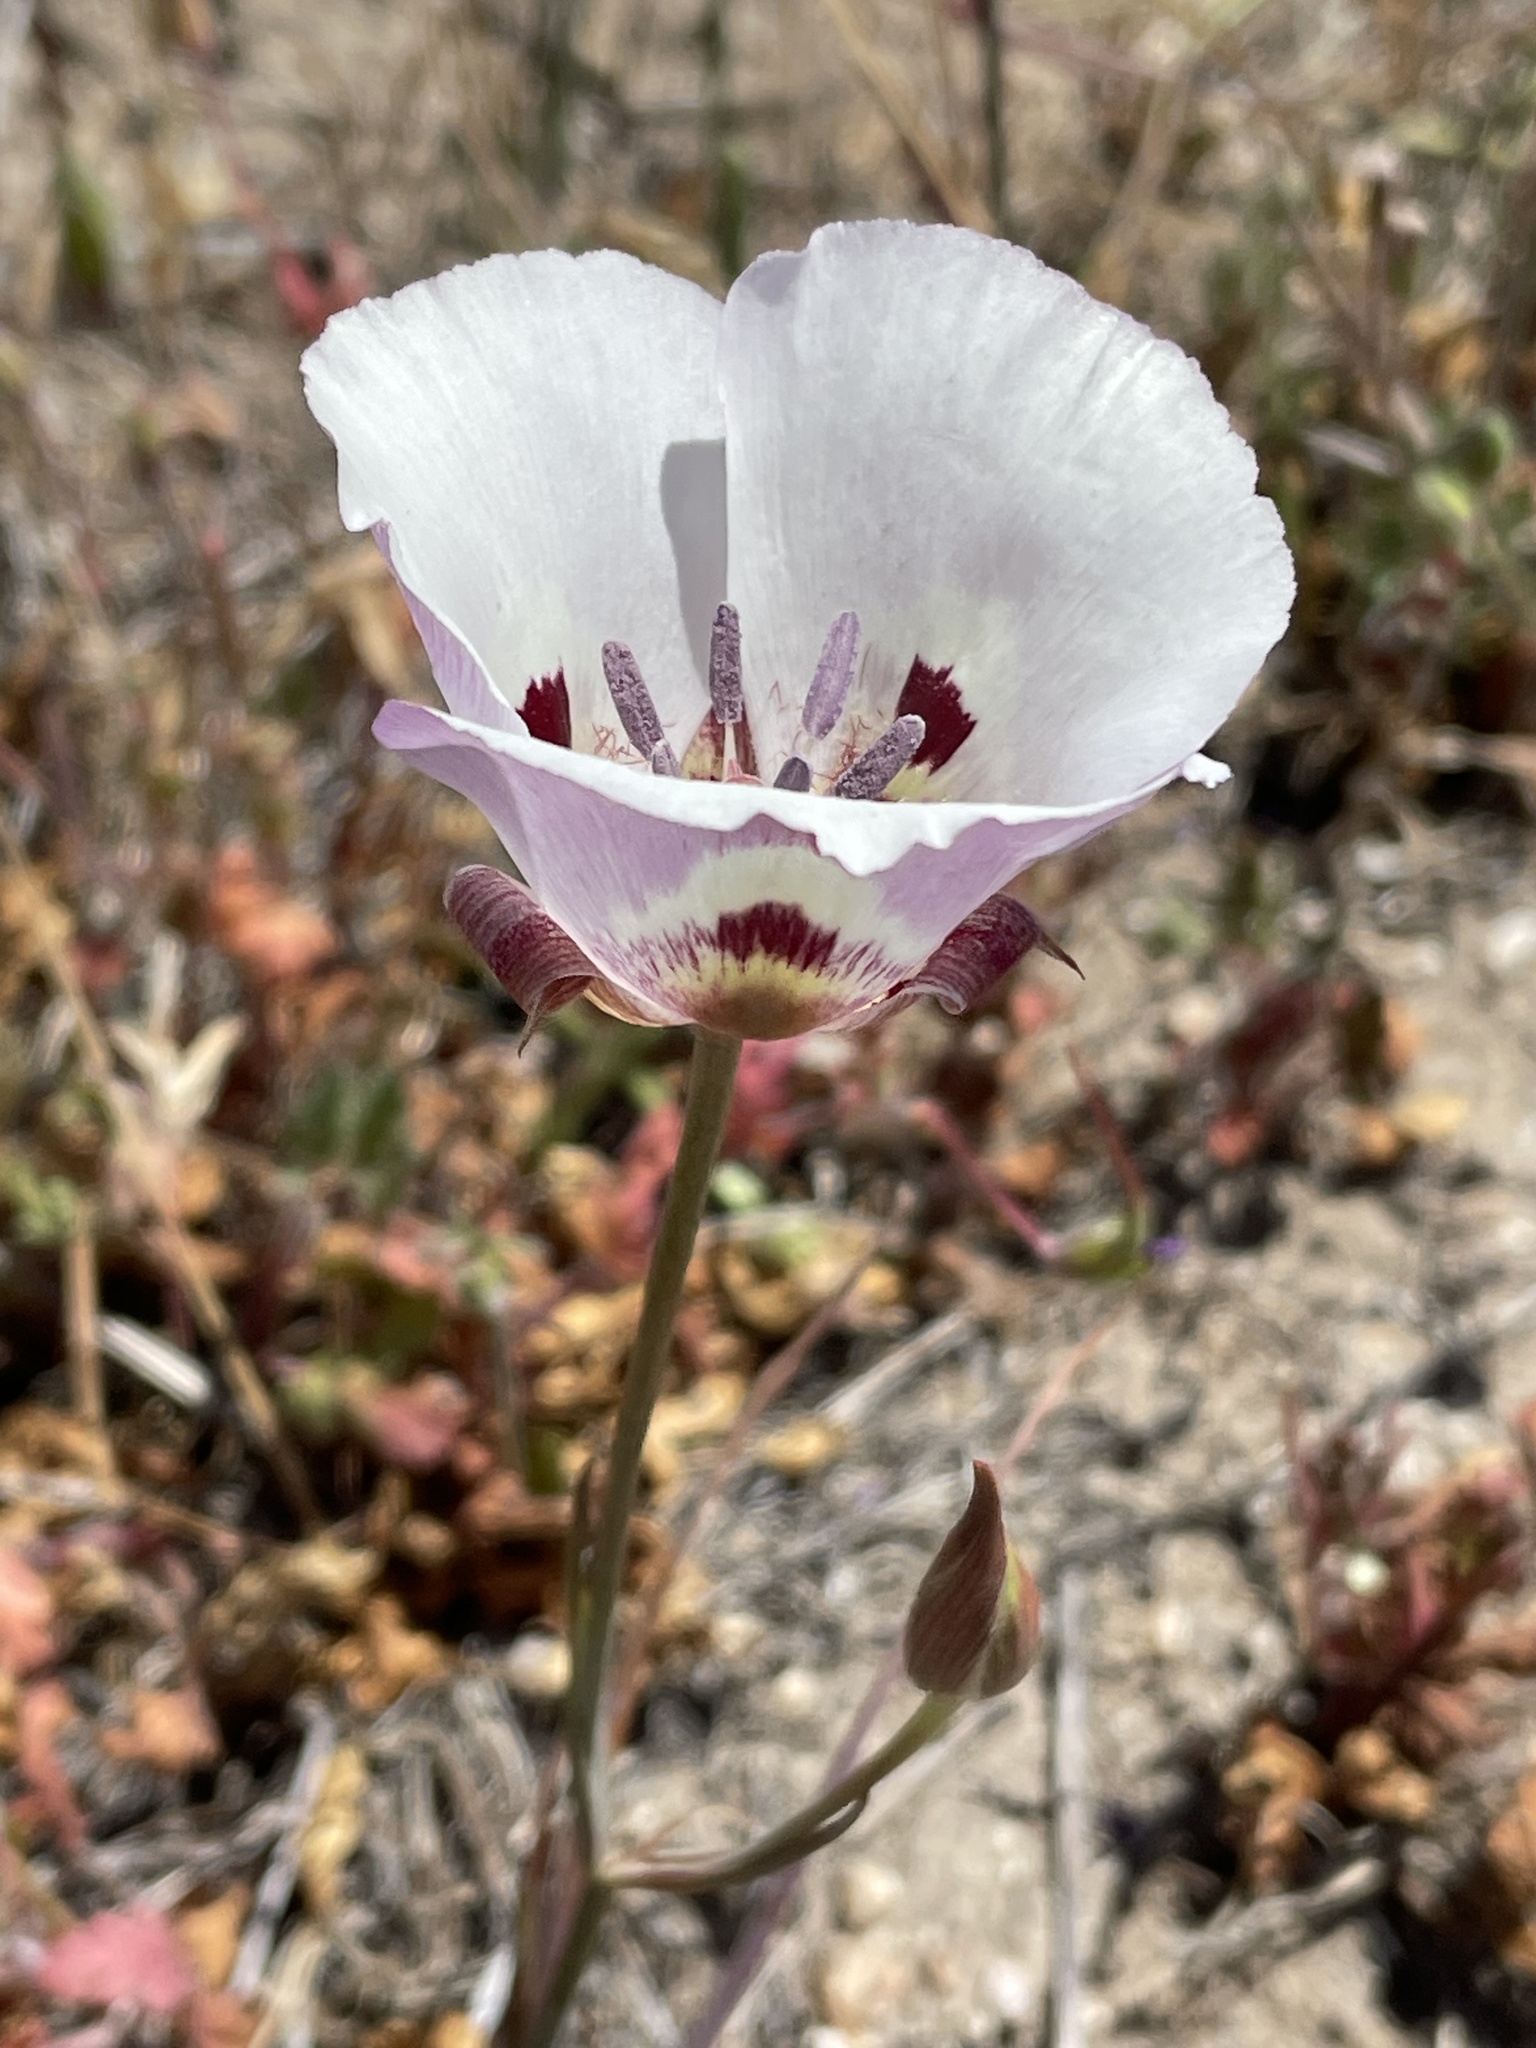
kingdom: Plantae
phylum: Tracheophyta
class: Liliopsida
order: Liliales
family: Liliaceae
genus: Calochortus
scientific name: Calochortus argillosus
